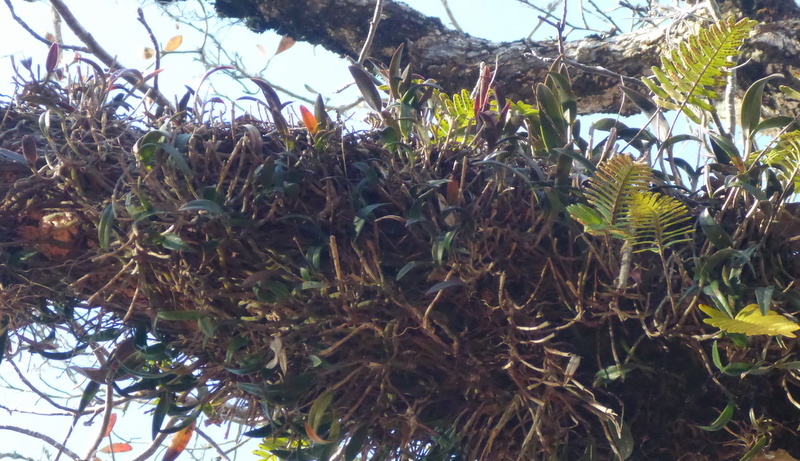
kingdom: Plantae
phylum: Tracheophyta
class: Liliopsida
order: Asparagales
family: Orchidaceae
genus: Epidendrum
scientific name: Epidendrum conopseum
